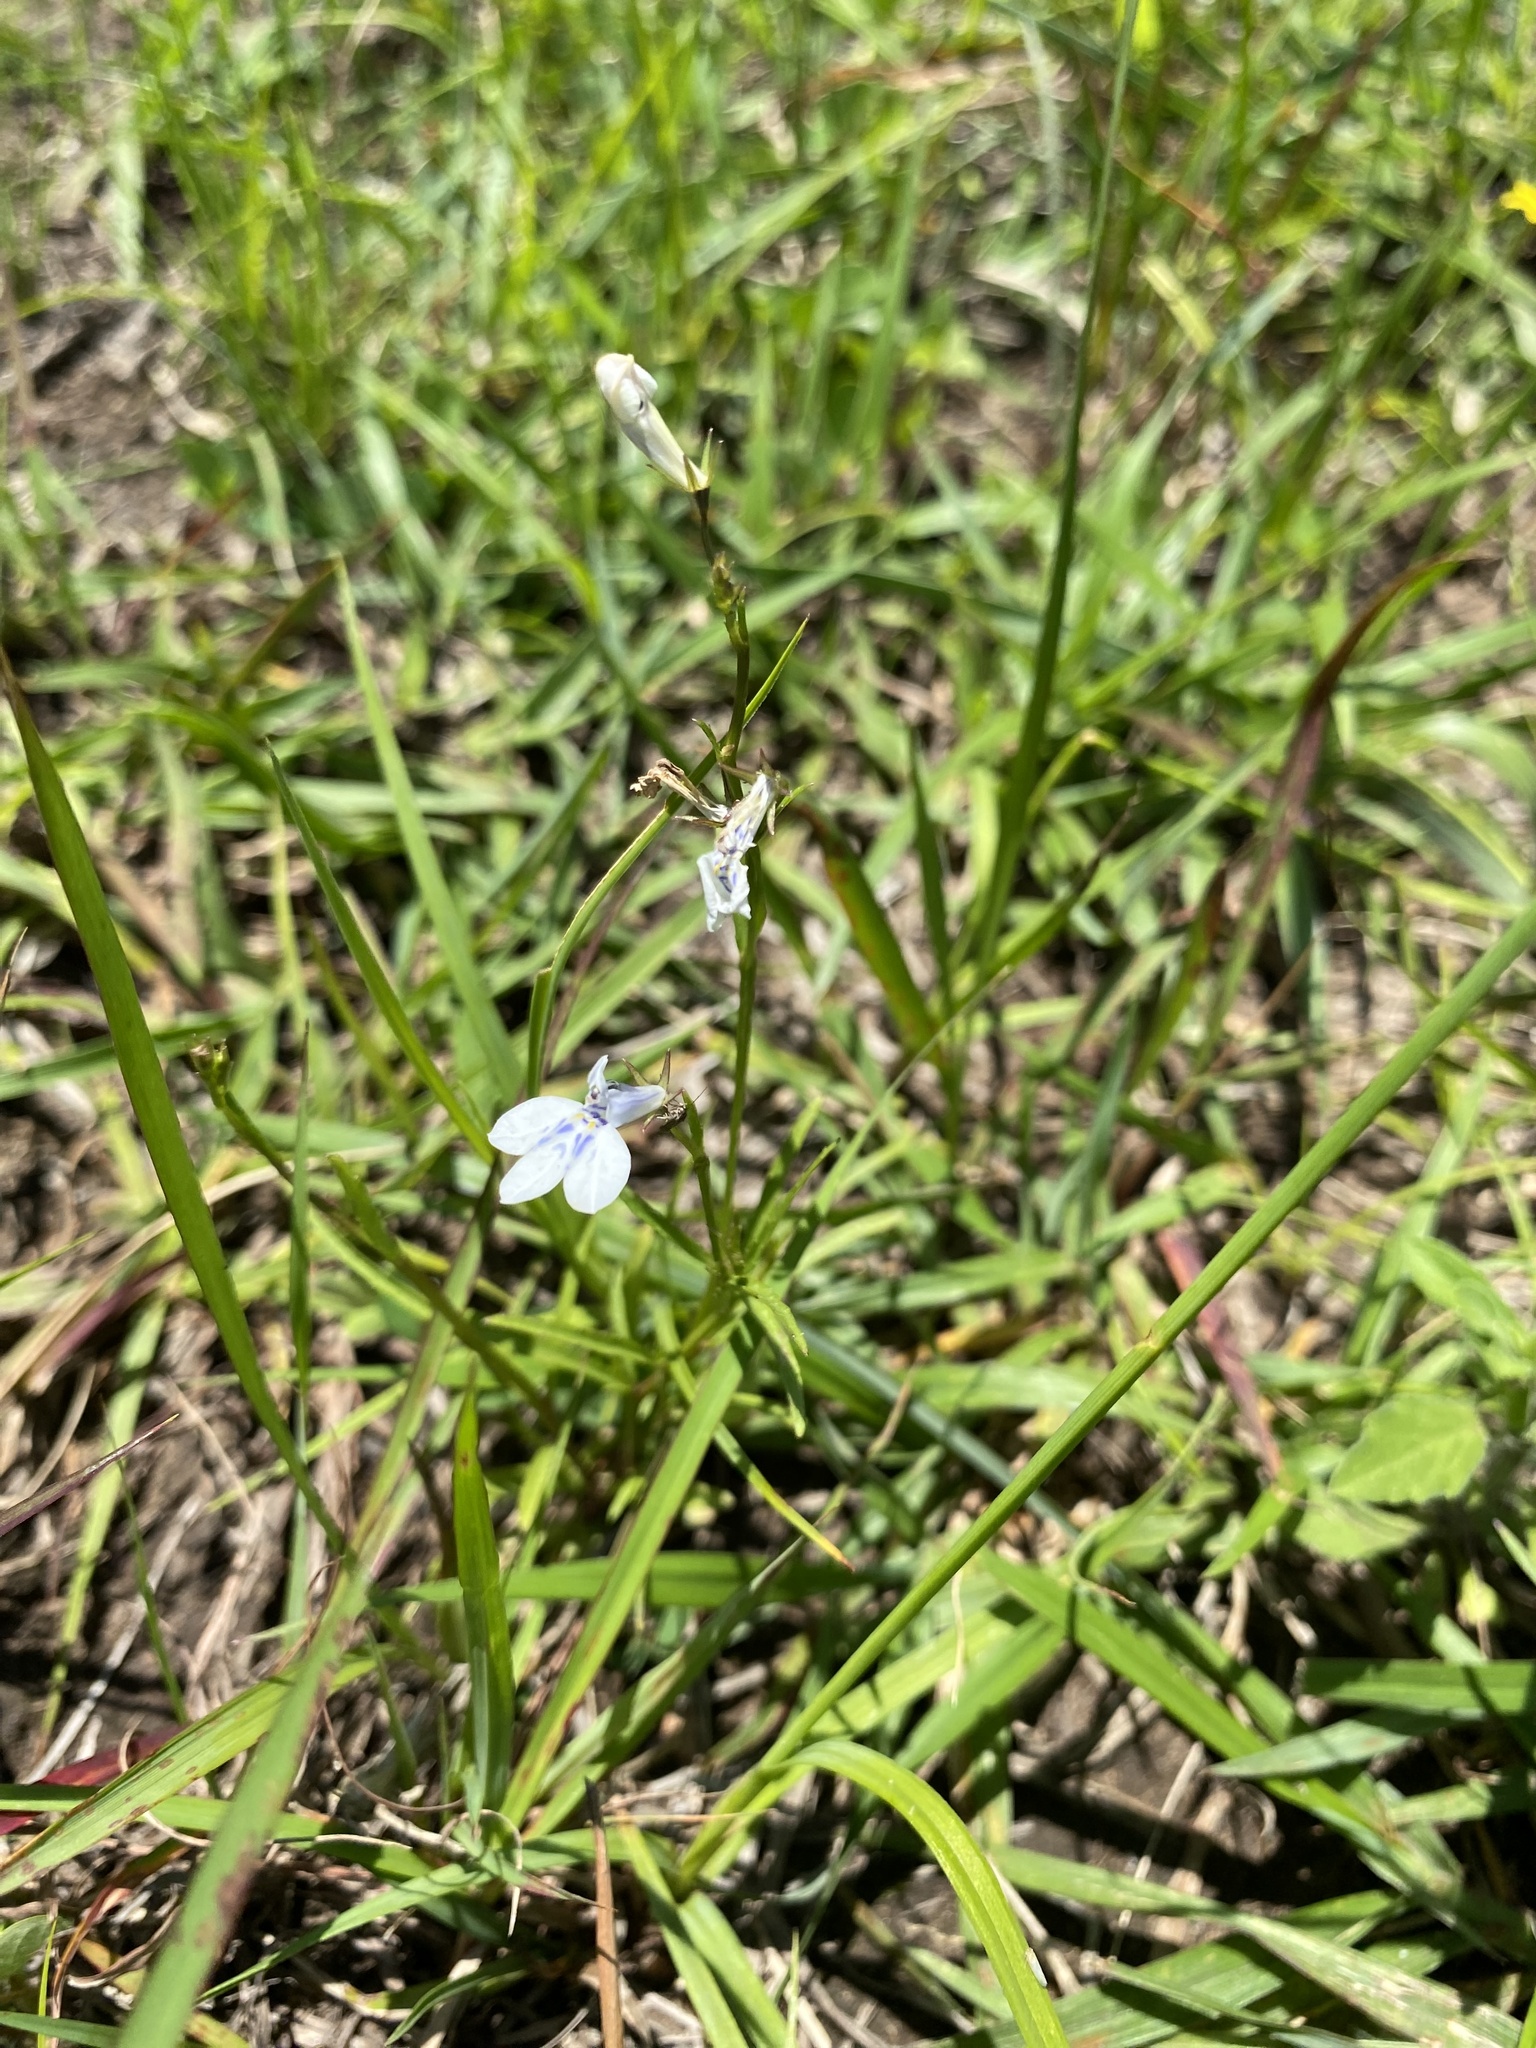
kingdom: Plantae
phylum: Tracheophyta
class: Magnoliopsida
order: Asterales
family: Campanulaceae
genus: Lobelia
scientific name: Lobelia flaccida
